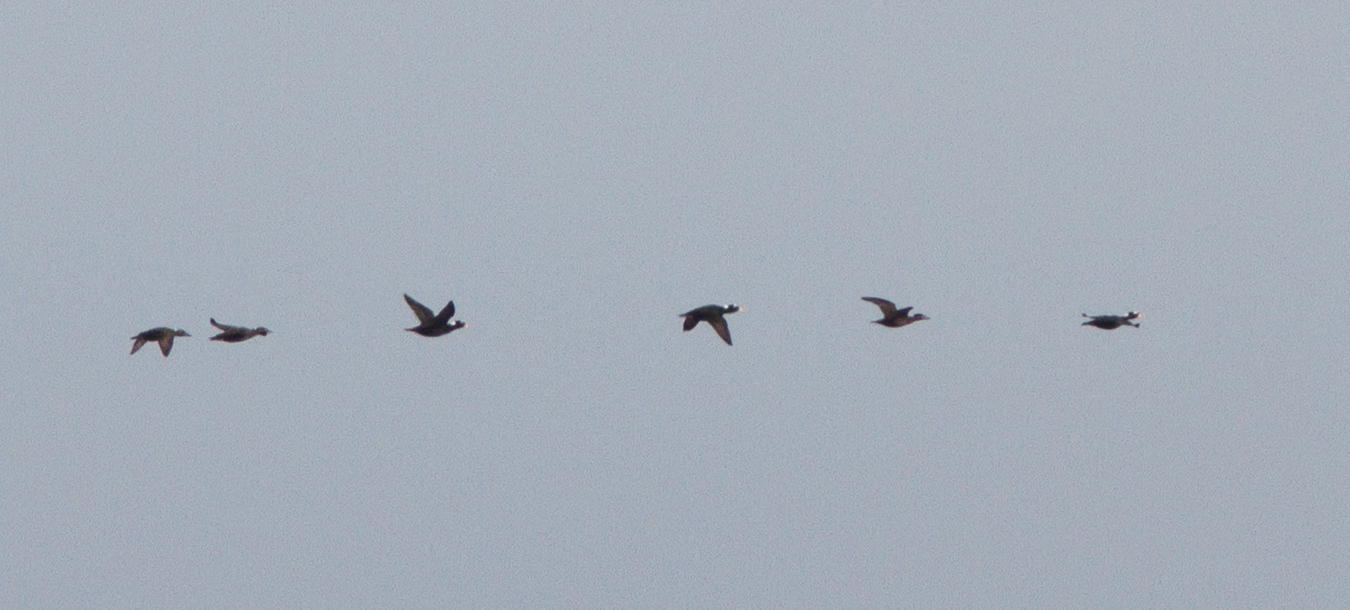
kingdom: Animalia
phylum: Chordata
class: Aves
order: Anseriformes
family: Anatidae
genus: Melanitta
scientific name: Melanitta perspicillata
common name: Surf scoter
